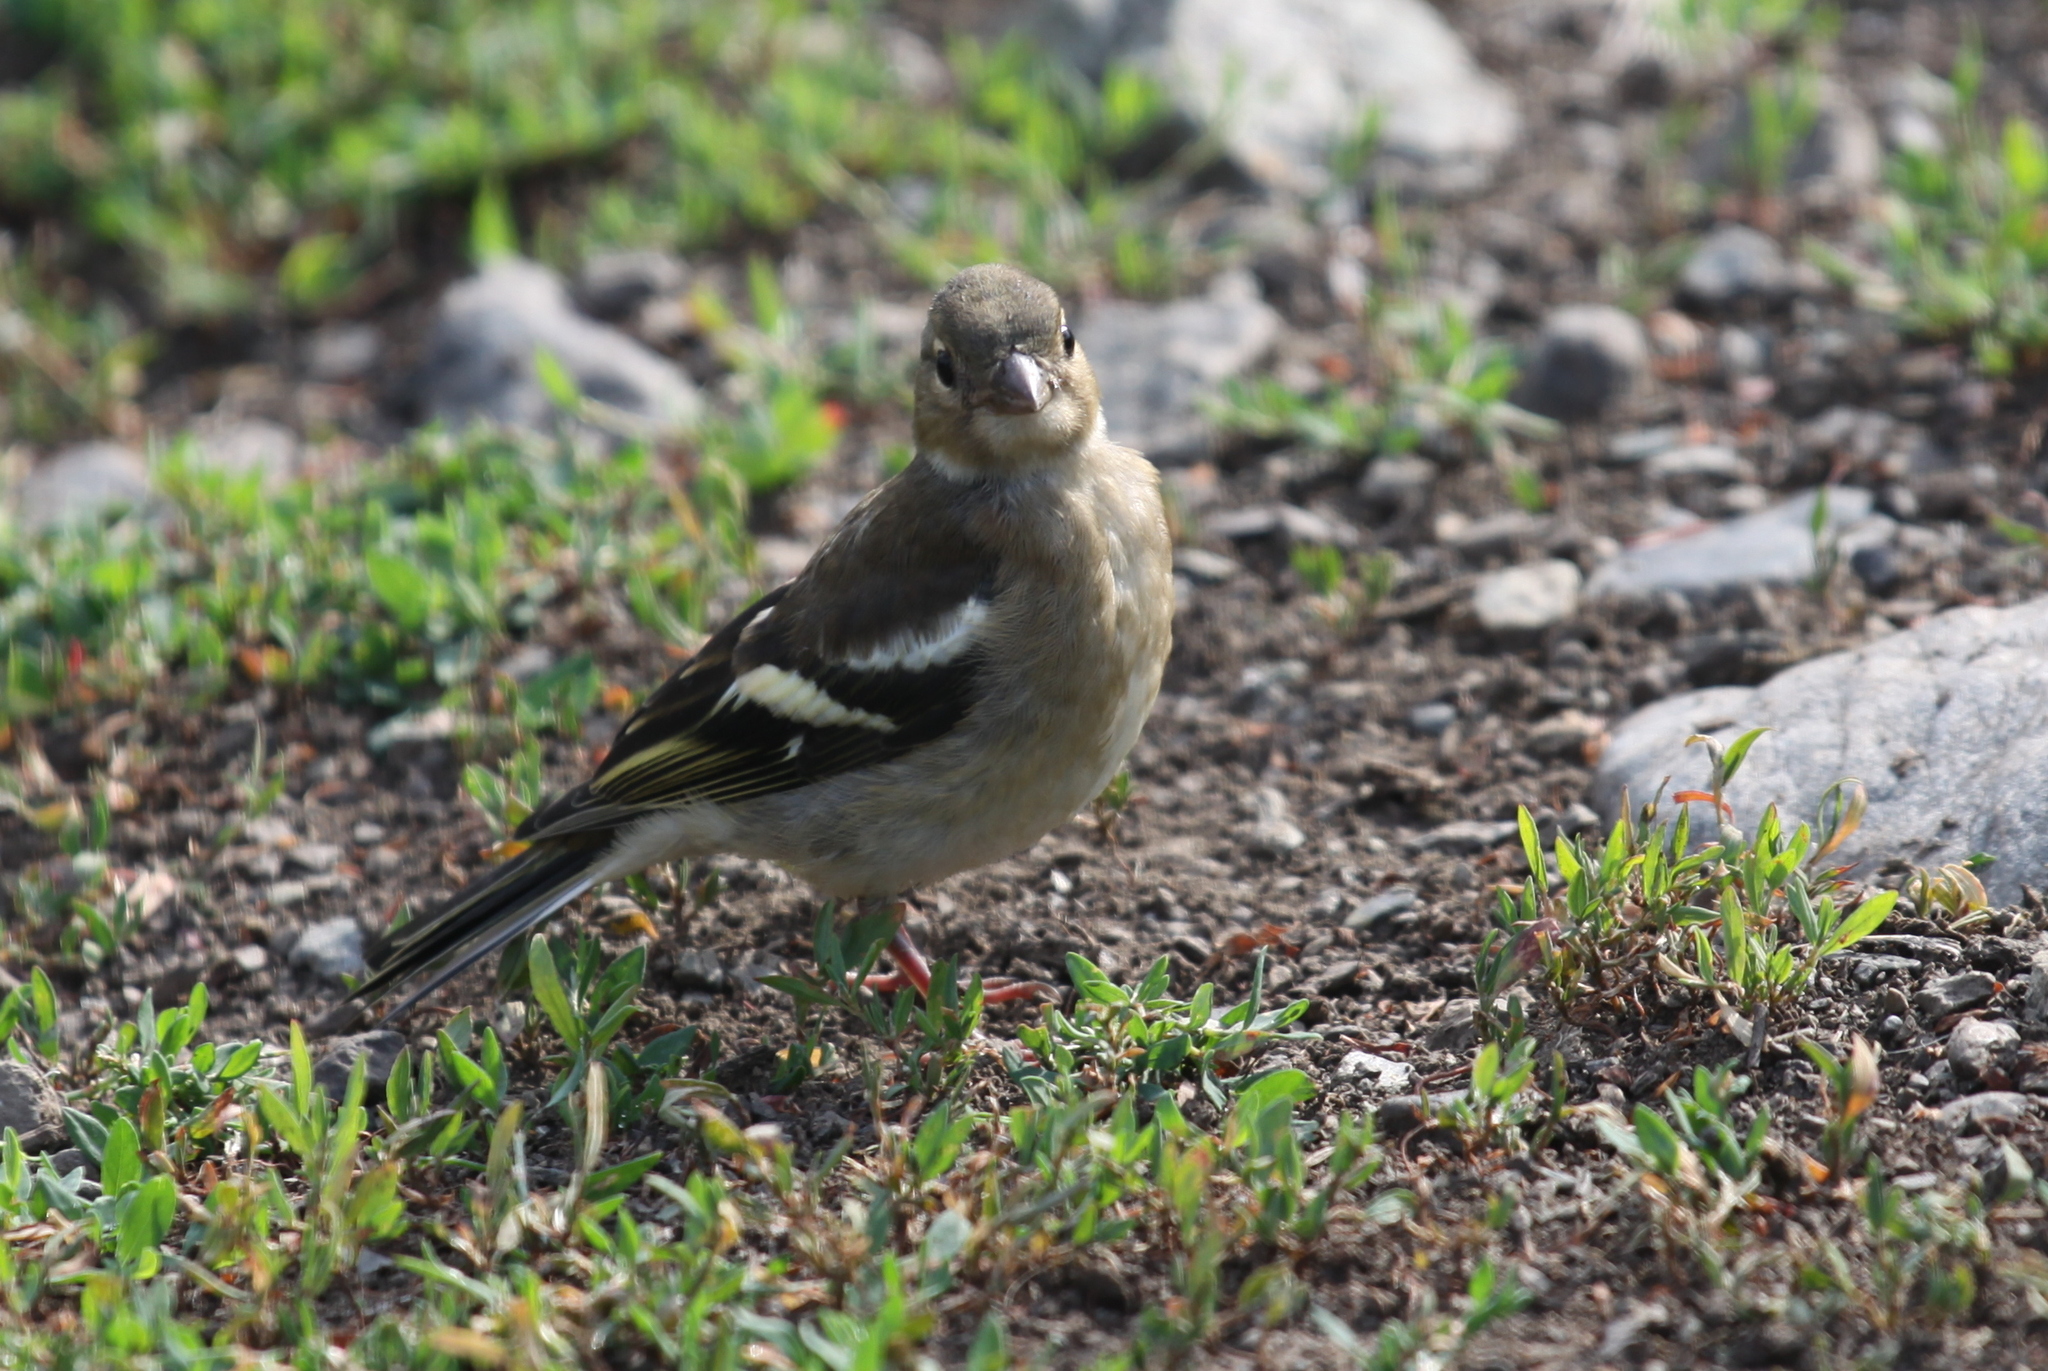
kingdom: Animalia
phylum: Chordata
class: Aves
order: Passeriformes
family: Fringillidae
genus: Fringilla
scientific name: Fringilla coelebs
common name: Common chaffinch
